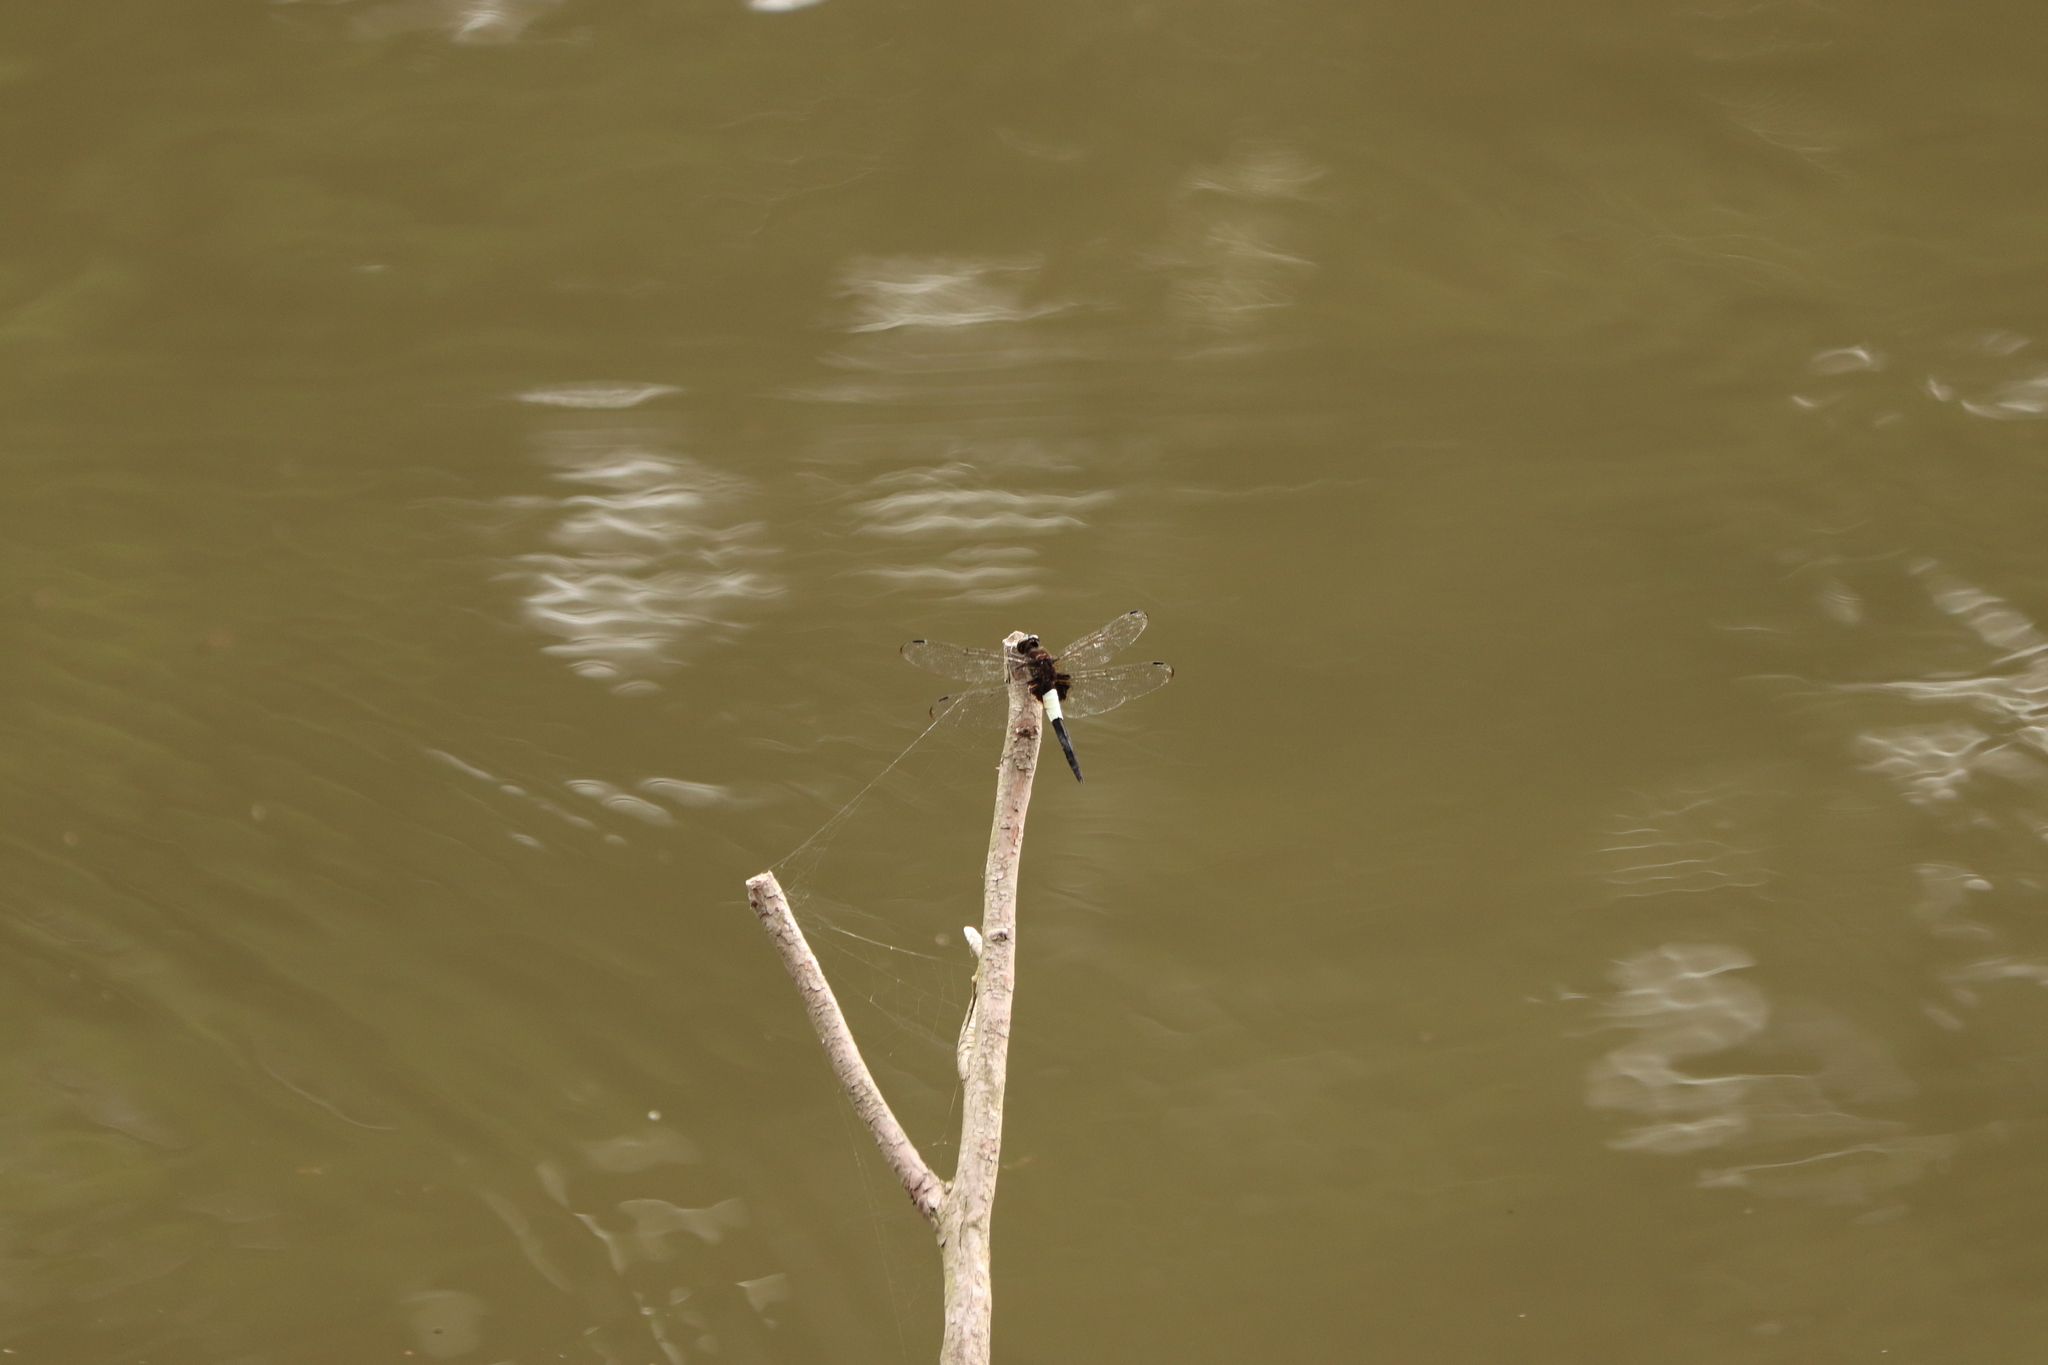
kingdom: Animalia
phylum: Arthropoda
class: Insecta
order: Odonata
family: Libellulidae
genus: Pseudothemis
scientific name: Pseudothemis zonata
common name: Pied skimmer
